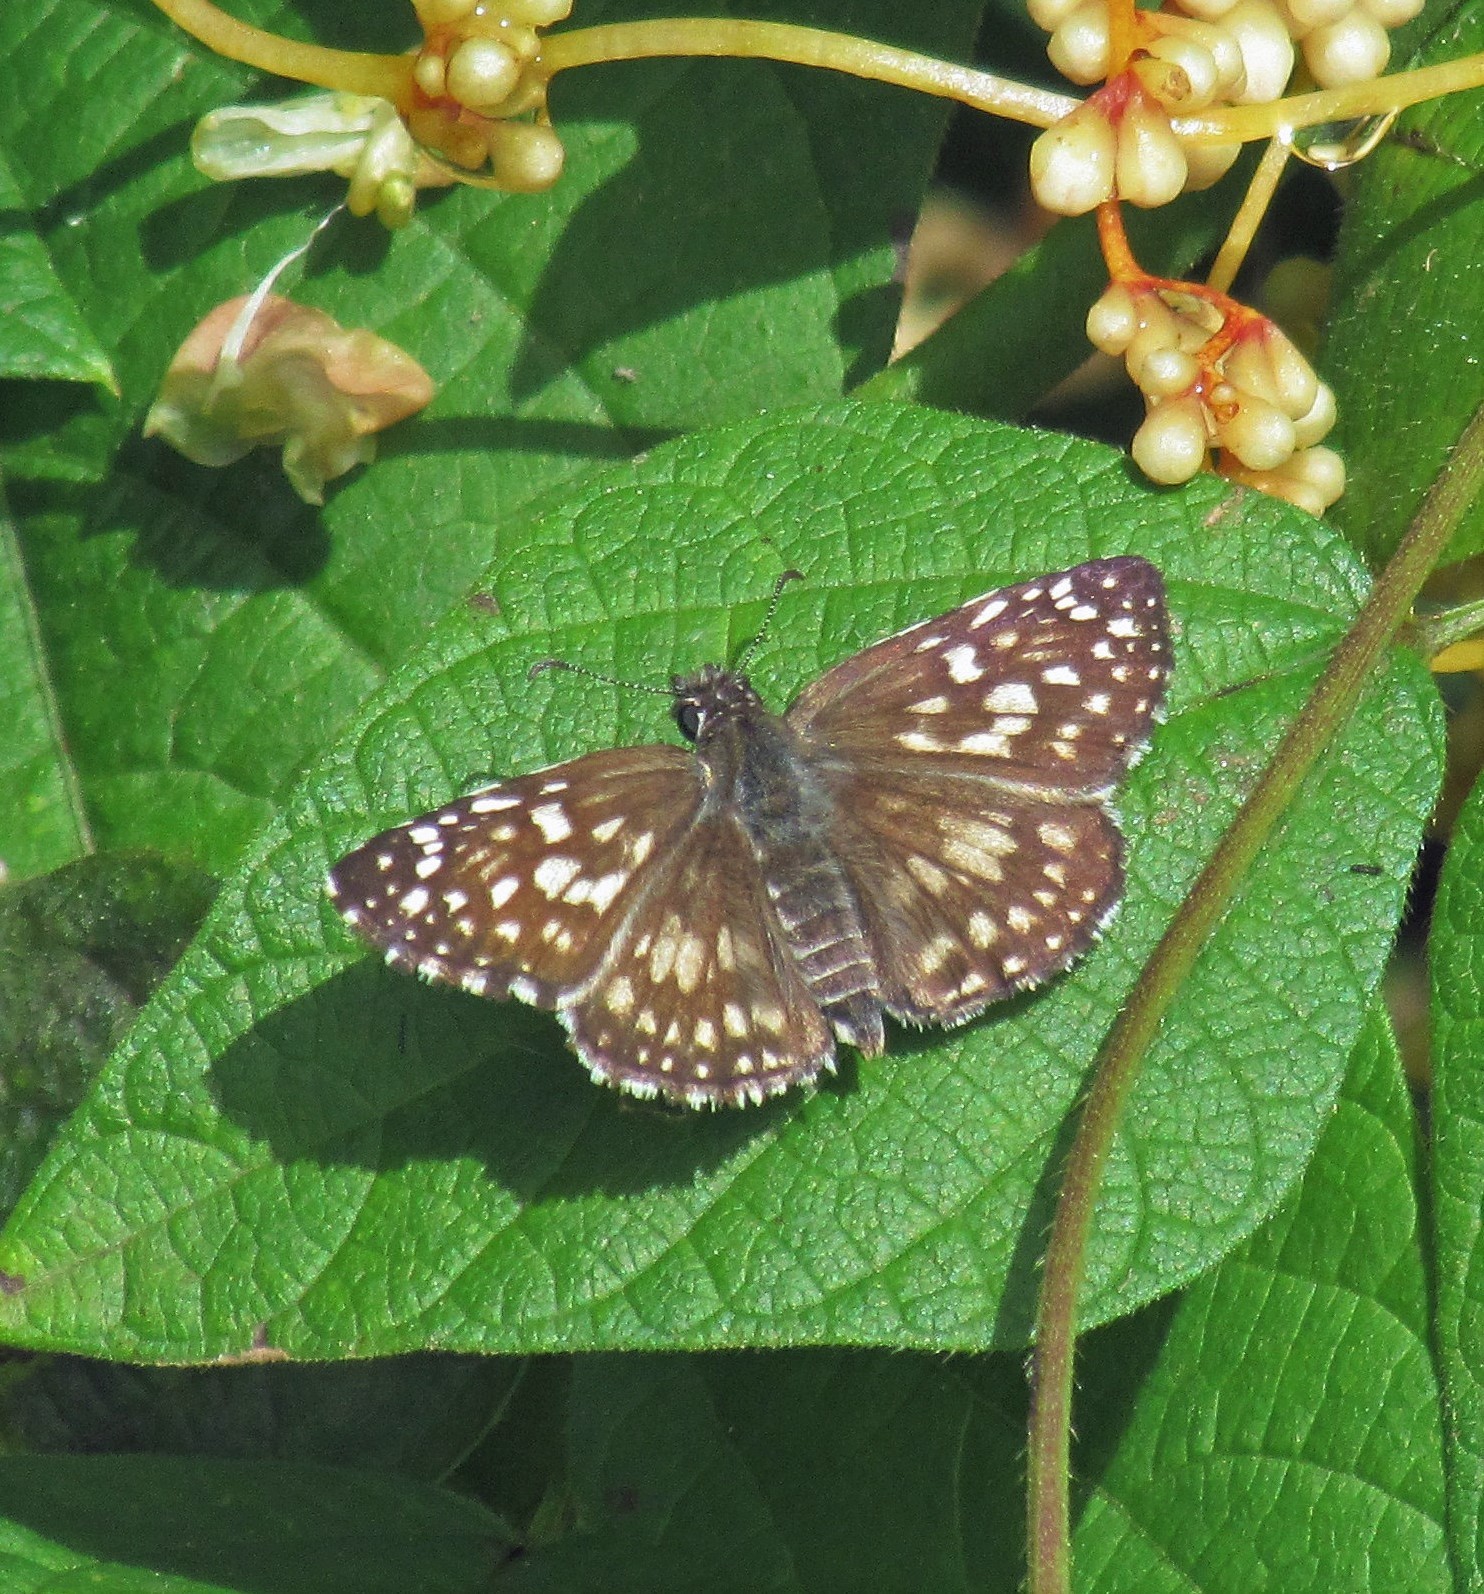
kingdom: Animalia
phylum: Arthropoda
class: Insecta
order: Lepidoptera
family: Hesperiidae
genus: Pyrgus
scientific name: Pyrgus oileus
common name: Tropical checkered-skipper
